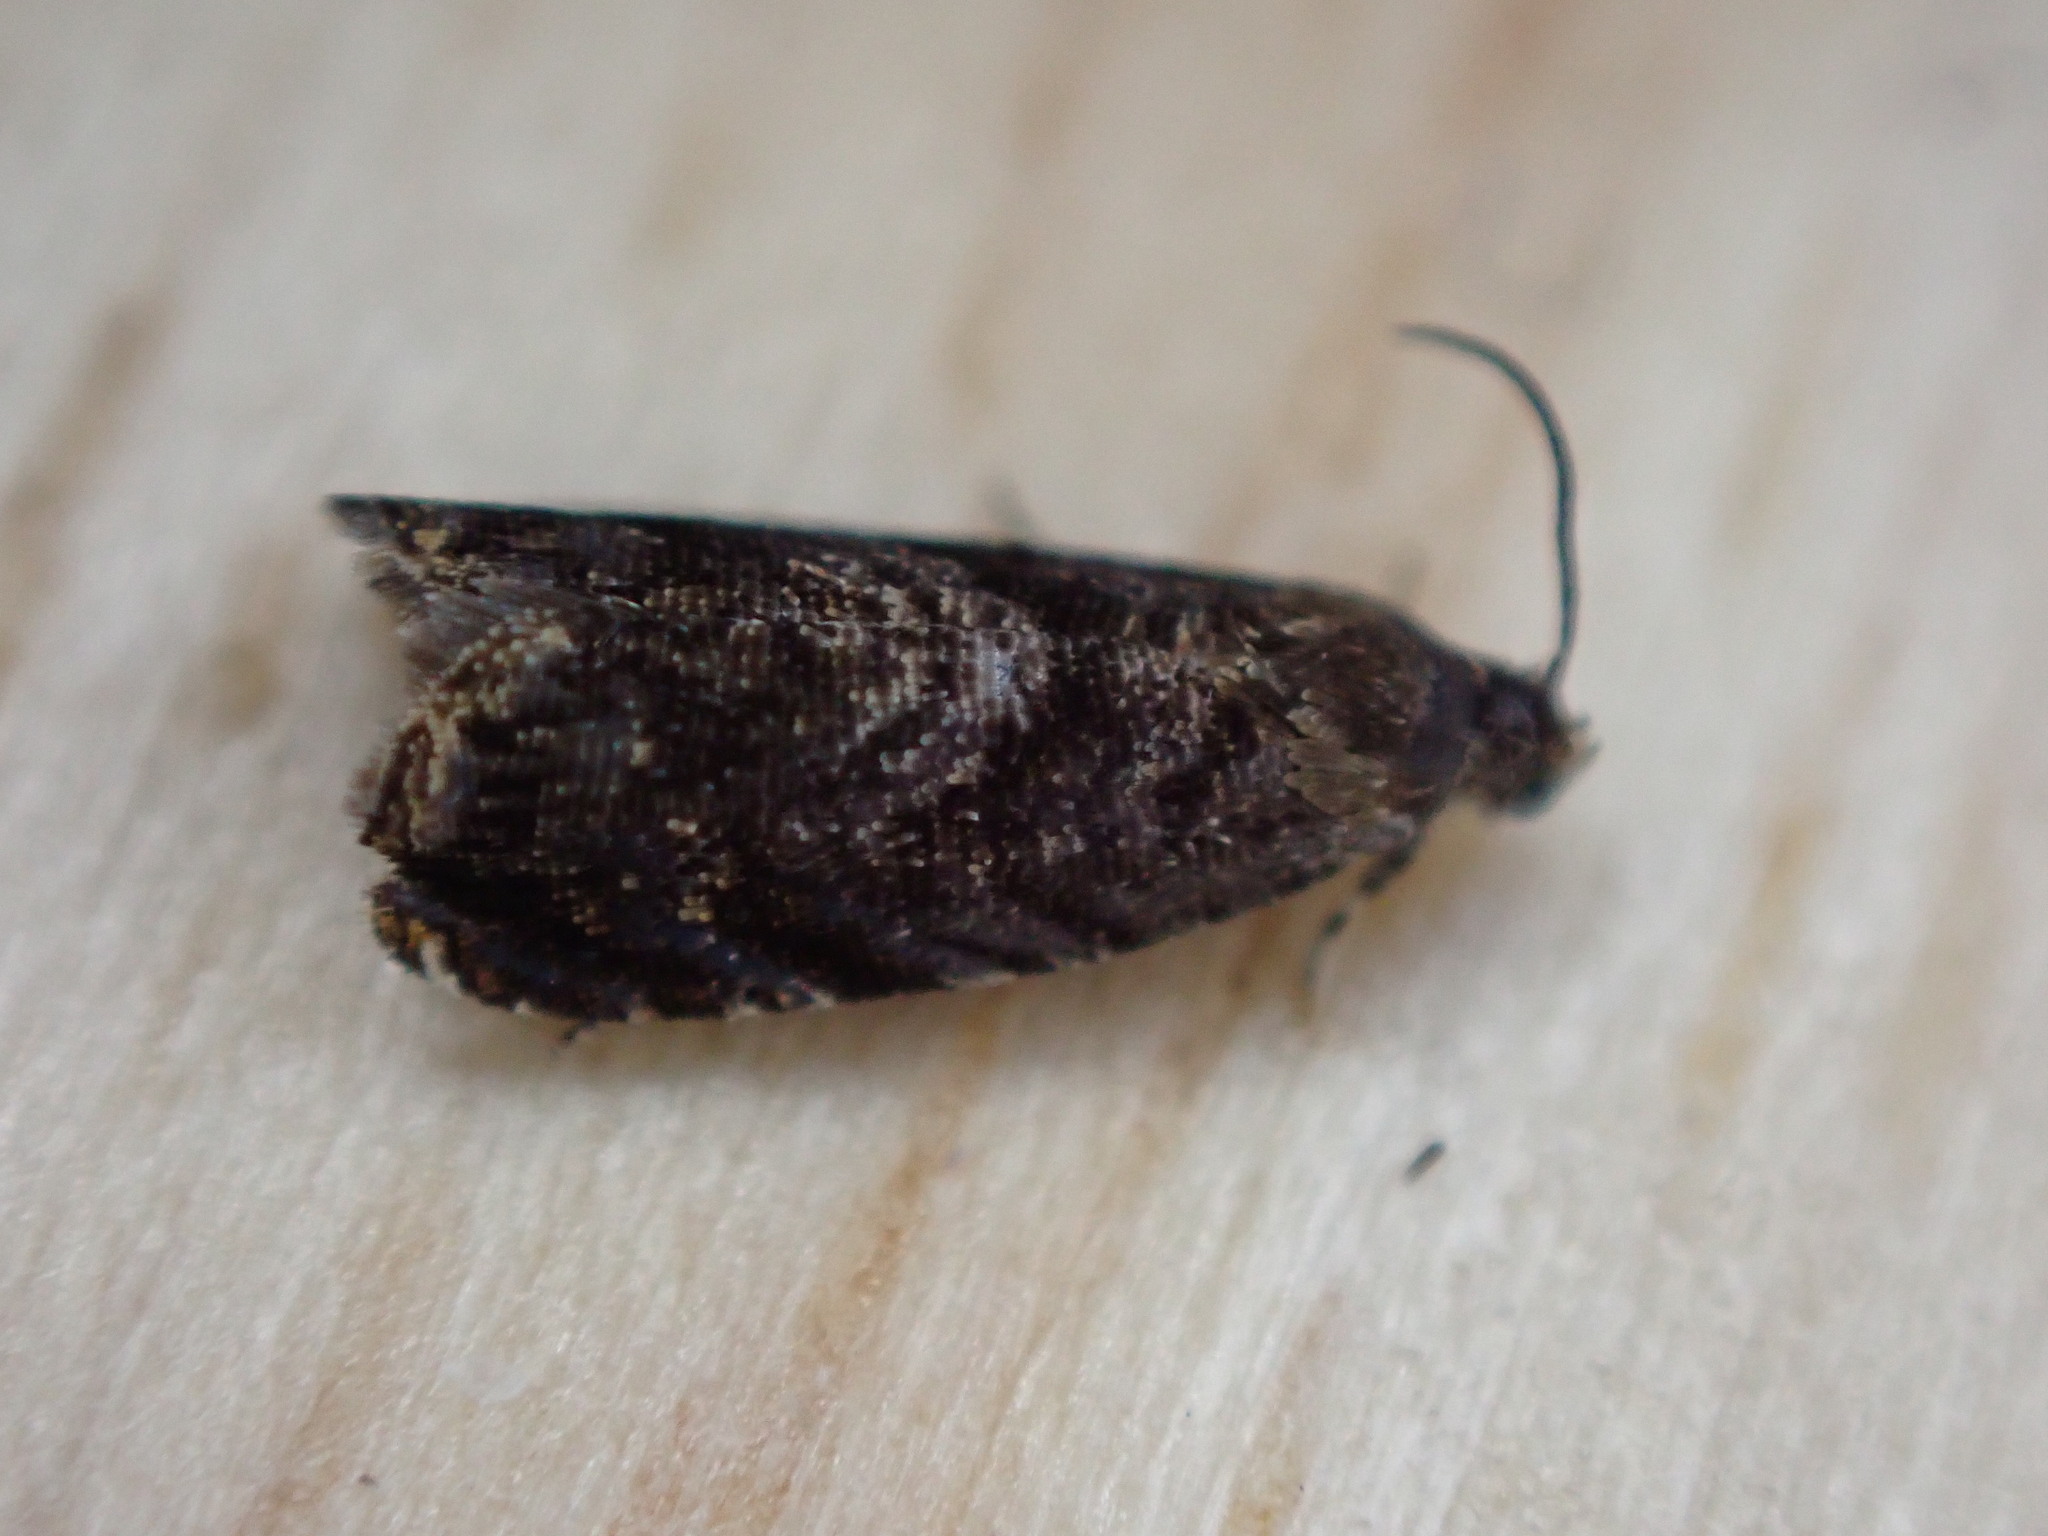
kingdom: Animalia
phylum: Arthropoda
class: Insecta
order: Lepidoptera
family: Noctuidae
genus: Aspila
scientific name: Aspila
